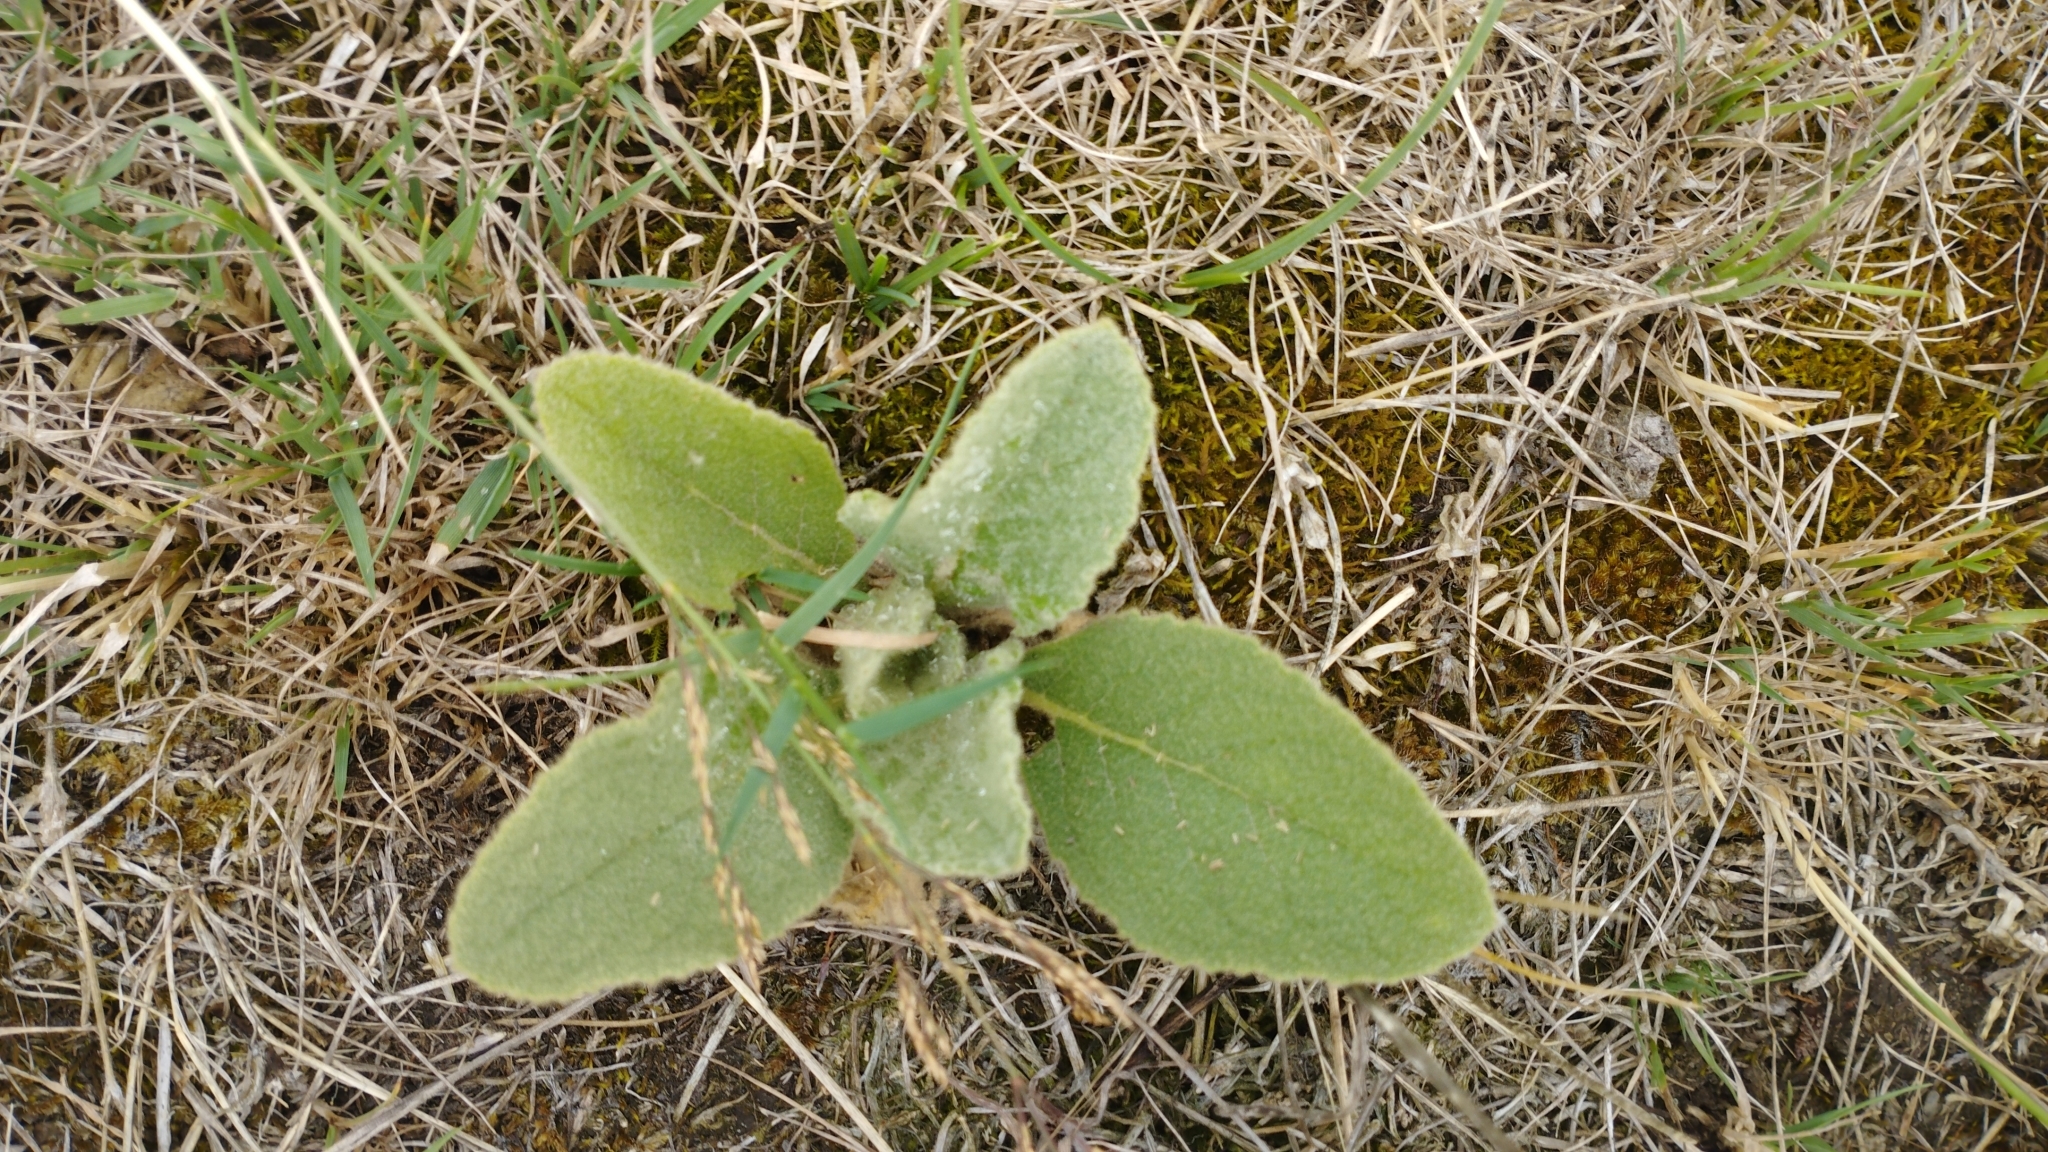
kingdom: Plantae
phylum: Tracheophyta
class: Magnoliopsida
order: Lamiales
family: Scrophulariaceae
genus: Verbascum
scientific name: Verbascum thapsus
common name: Common mullein
